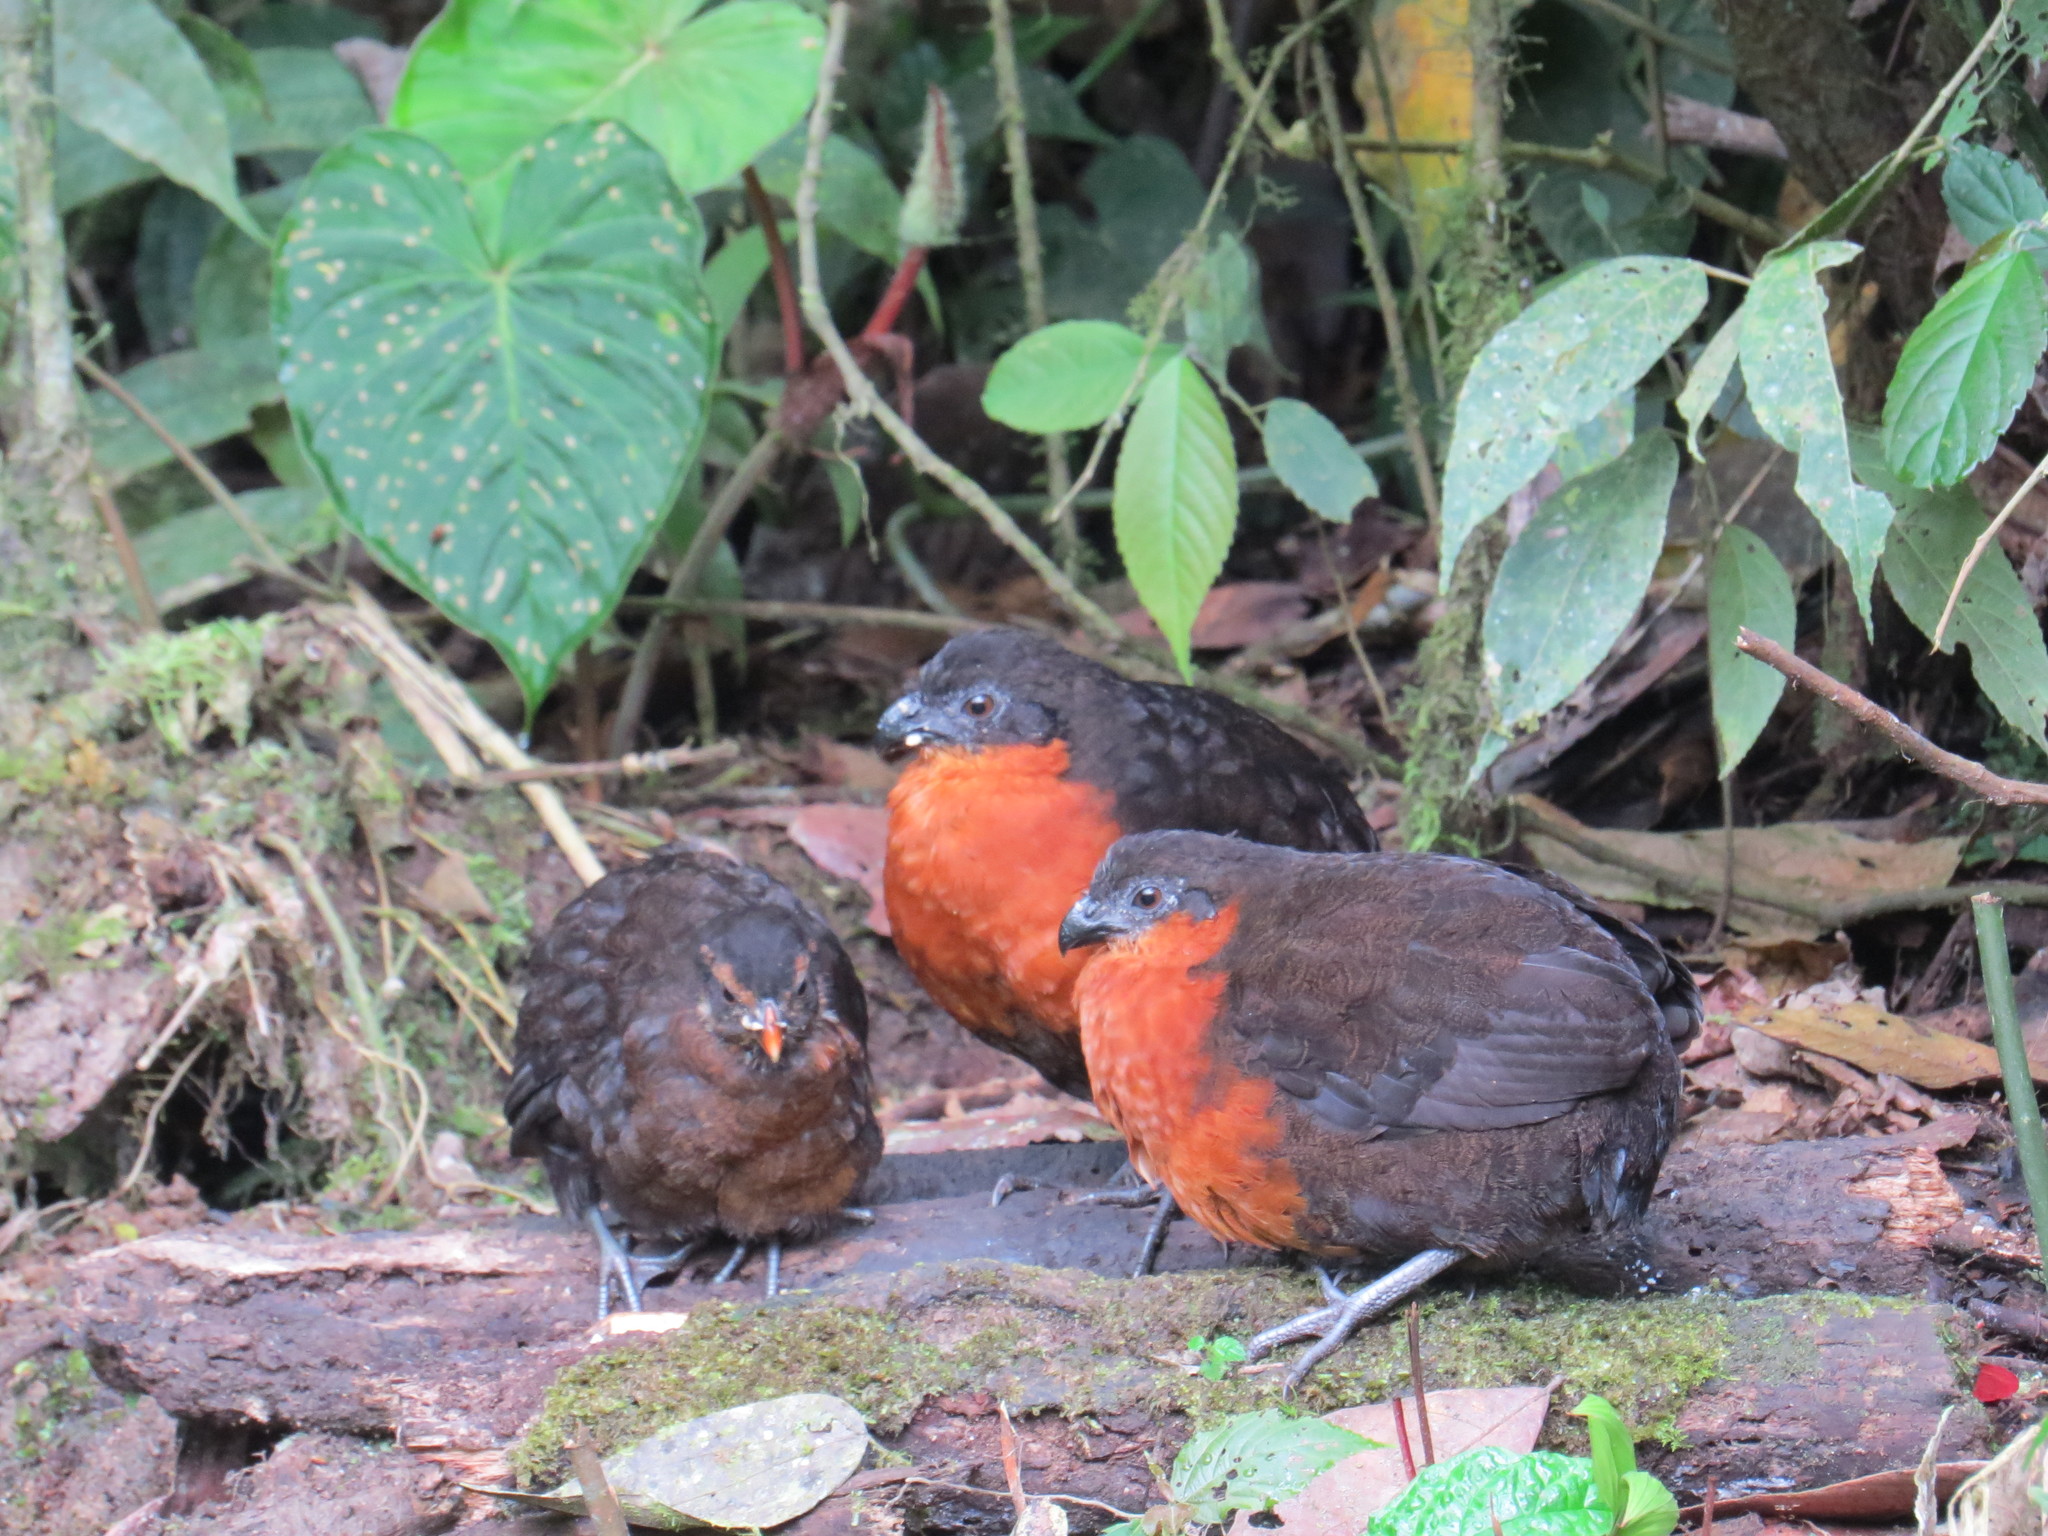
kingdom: Animalia
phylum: Chordata
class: Aves
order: Galliformes
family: Odontophoridae
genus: Odontophorus
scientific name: Odontophorus melanonotus
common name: Dark-backed wood-quail
